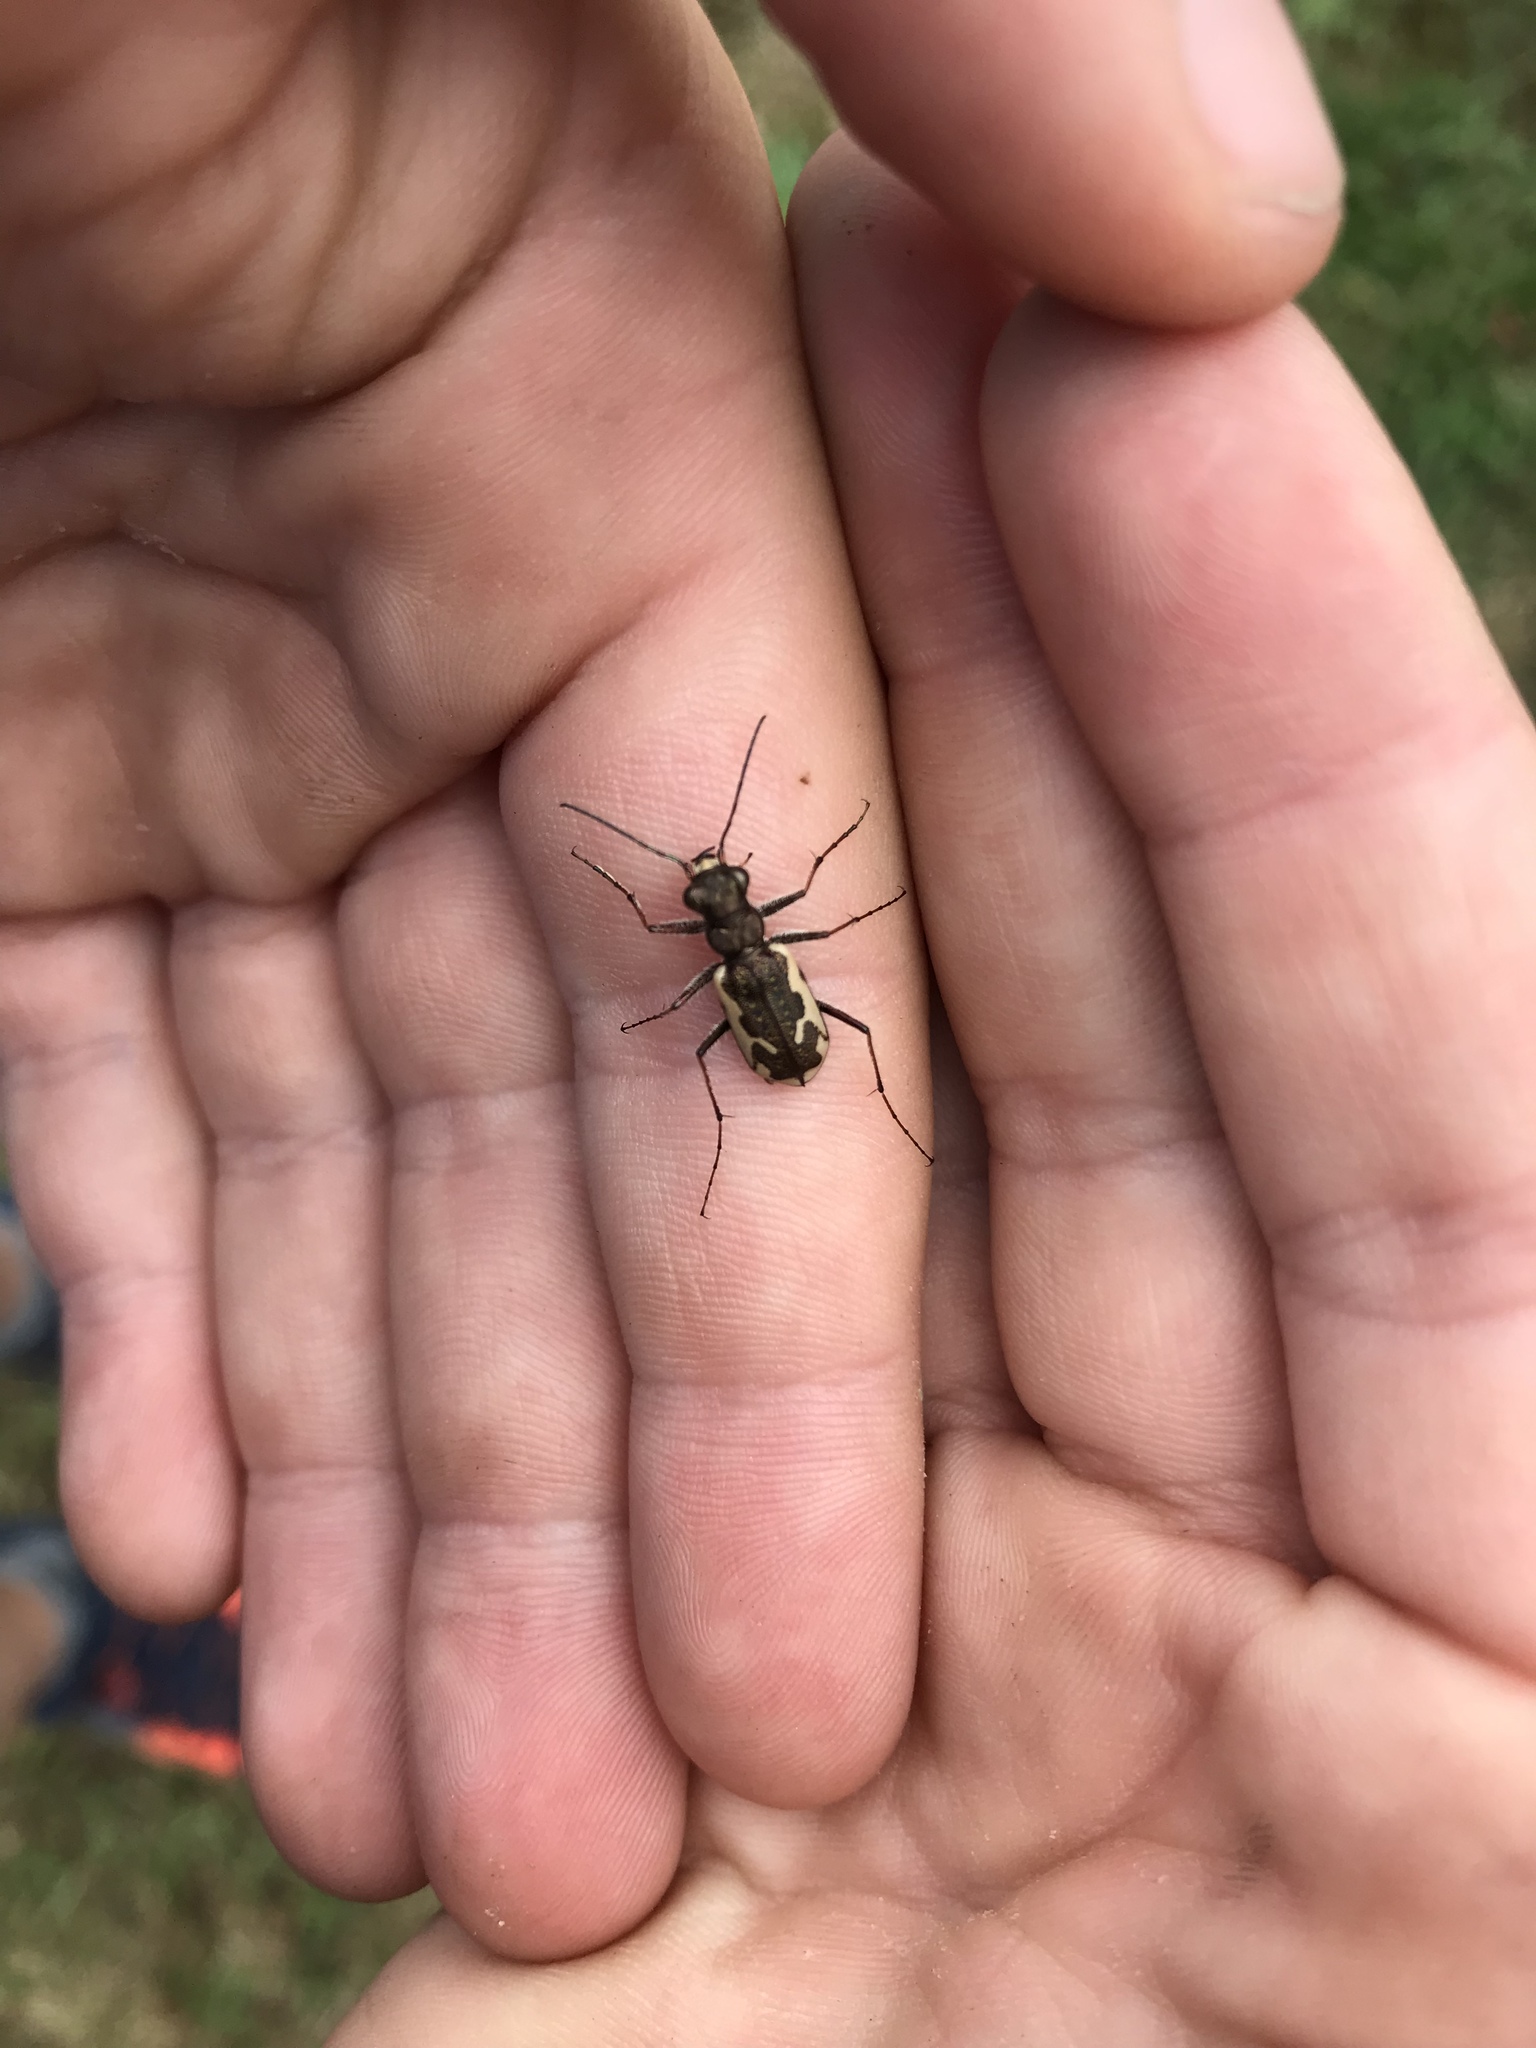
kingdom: Animalia
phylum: Arthropoda
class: Insecta
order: Coleoptera
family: Carabidae
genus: Neocicindela
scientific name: Neocicindela tuberculata
